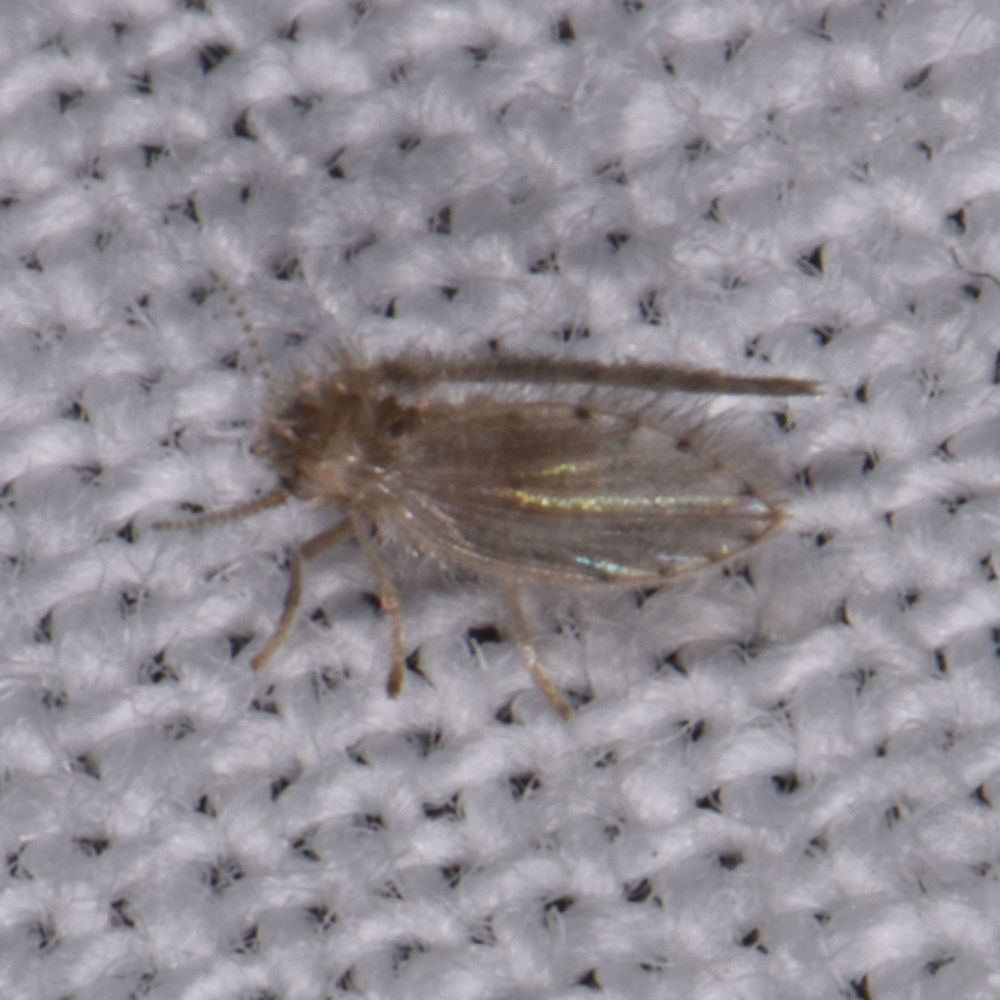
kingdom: Animalia
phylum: Arthropoda
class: Insecta
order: Diptera
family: Psychodidae
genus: Psychoda
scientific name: Psychoda alternata
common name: Moth fly
